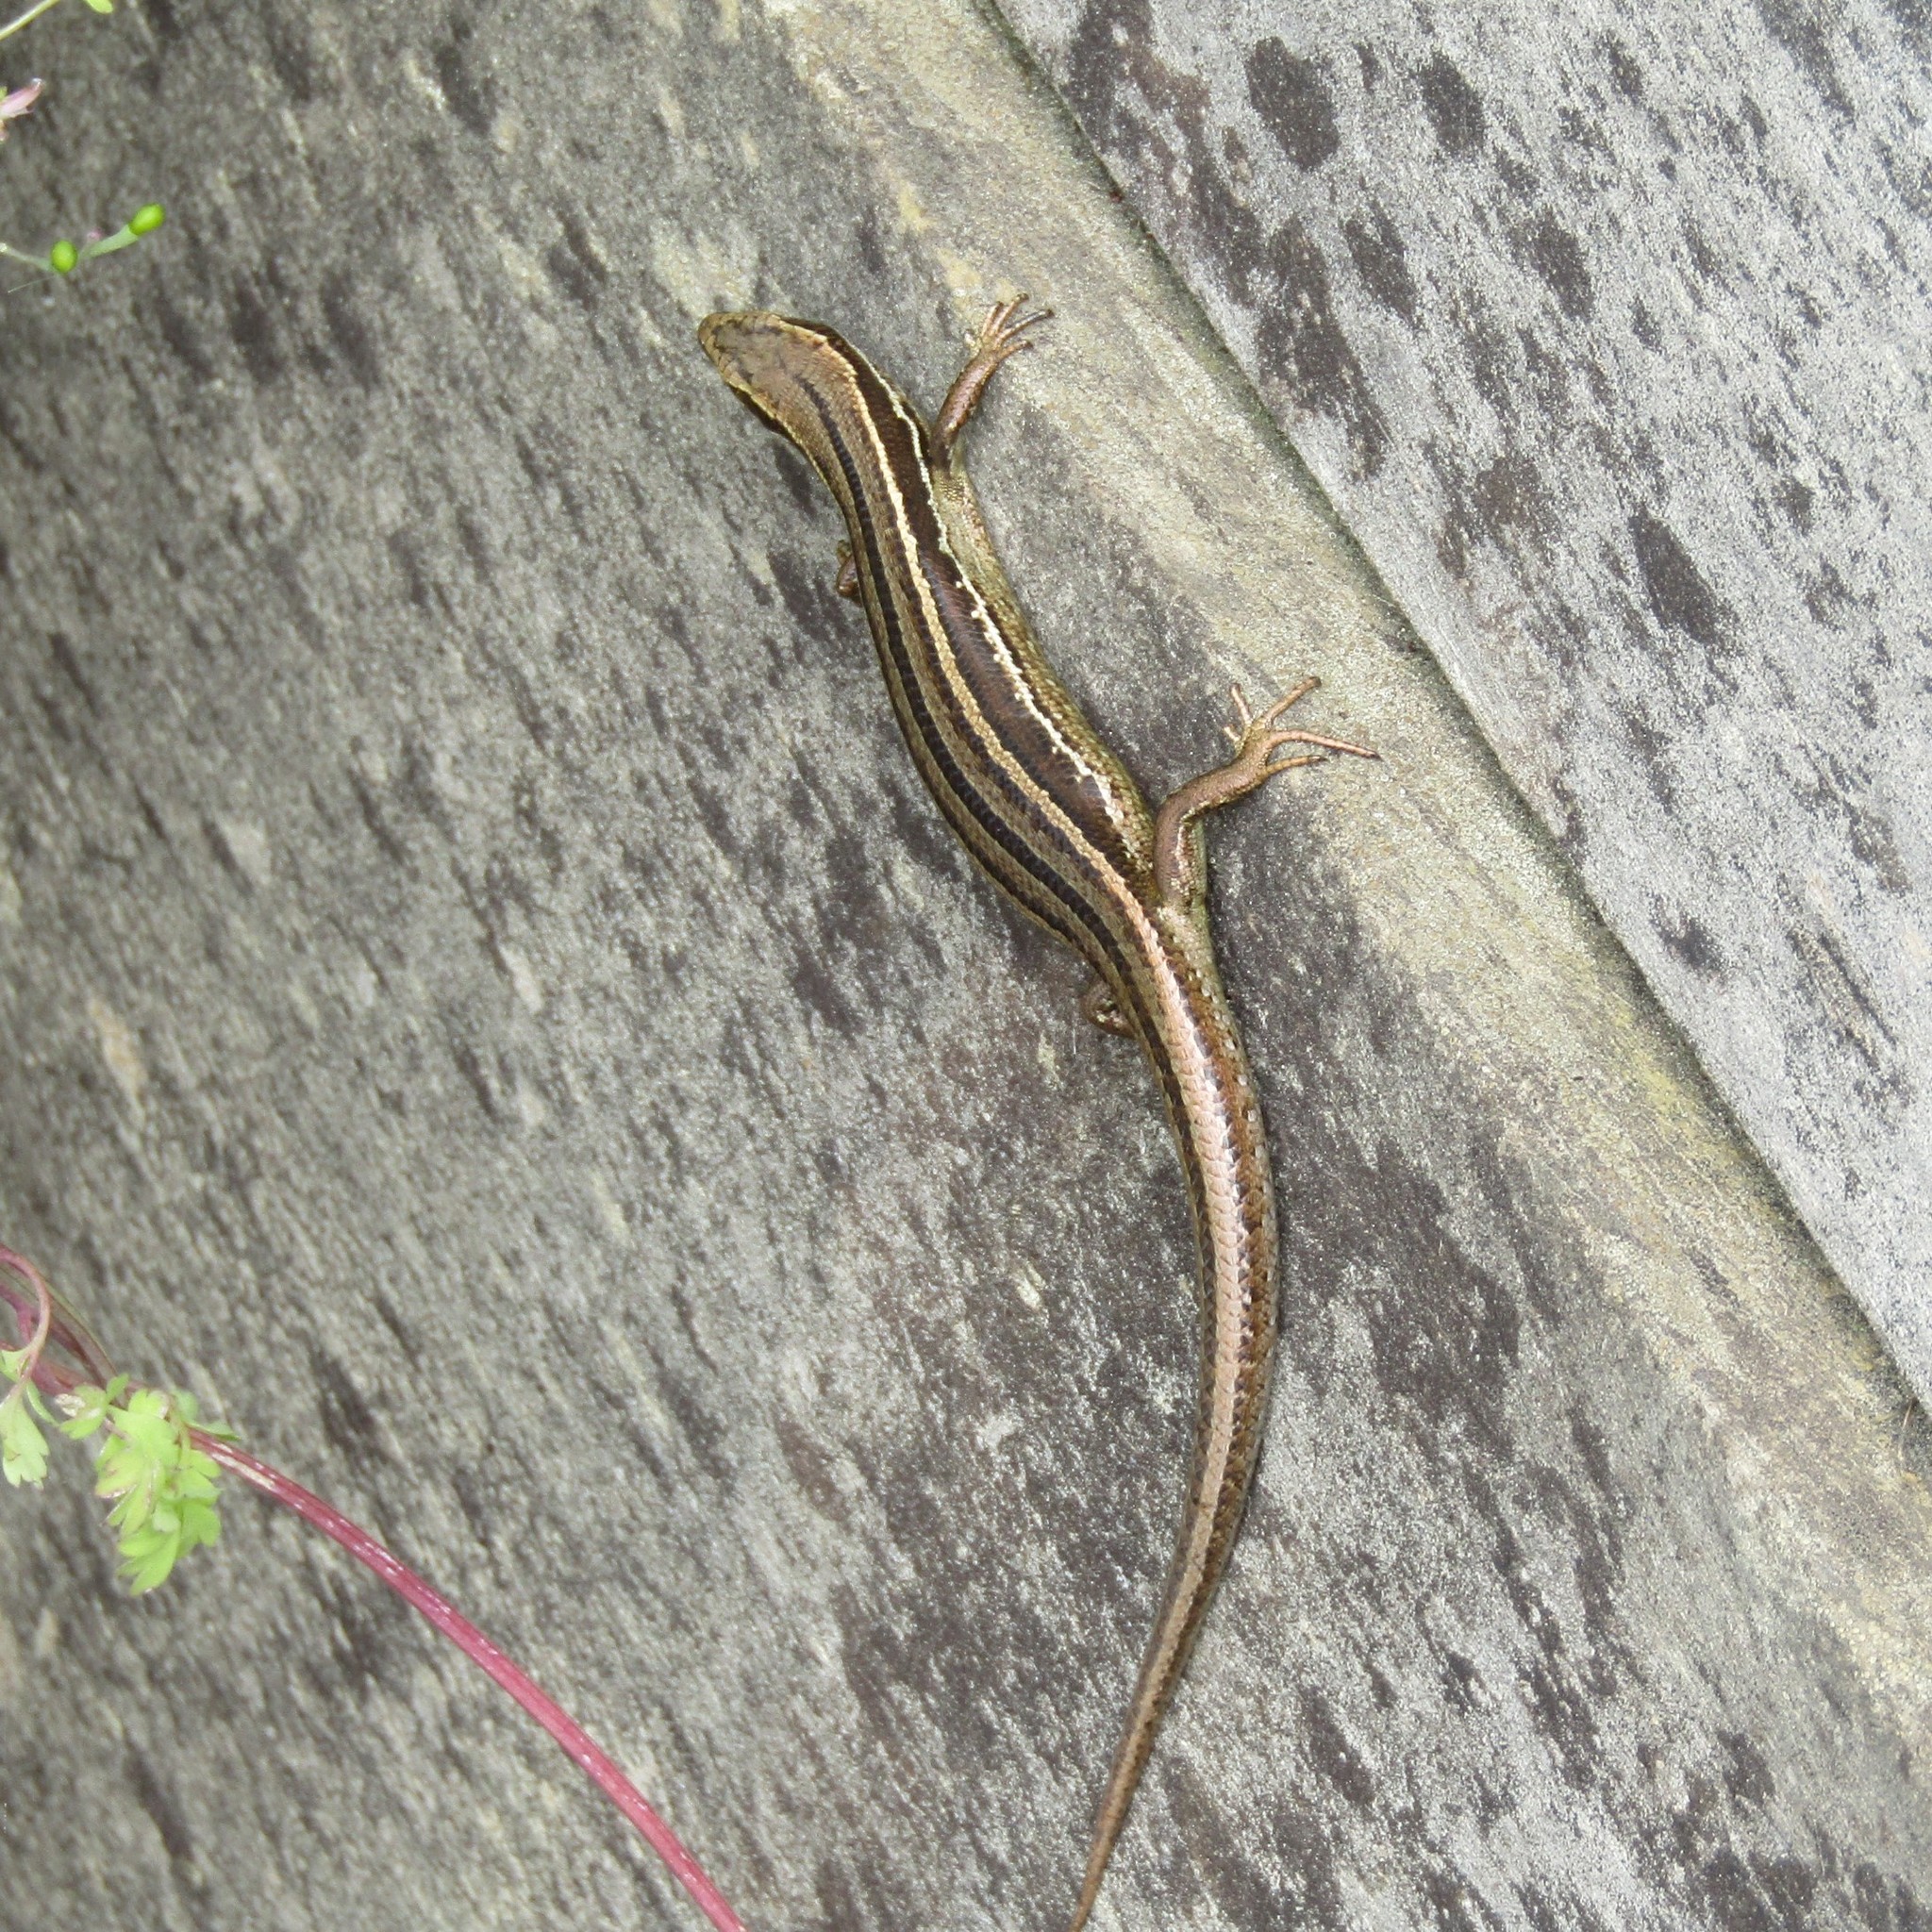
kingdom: Animalia
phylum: Chordata
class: Squamata
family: Scincidae
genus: Oligosoma
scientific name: Oligosoma polychroma
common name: Common new zealand skink
